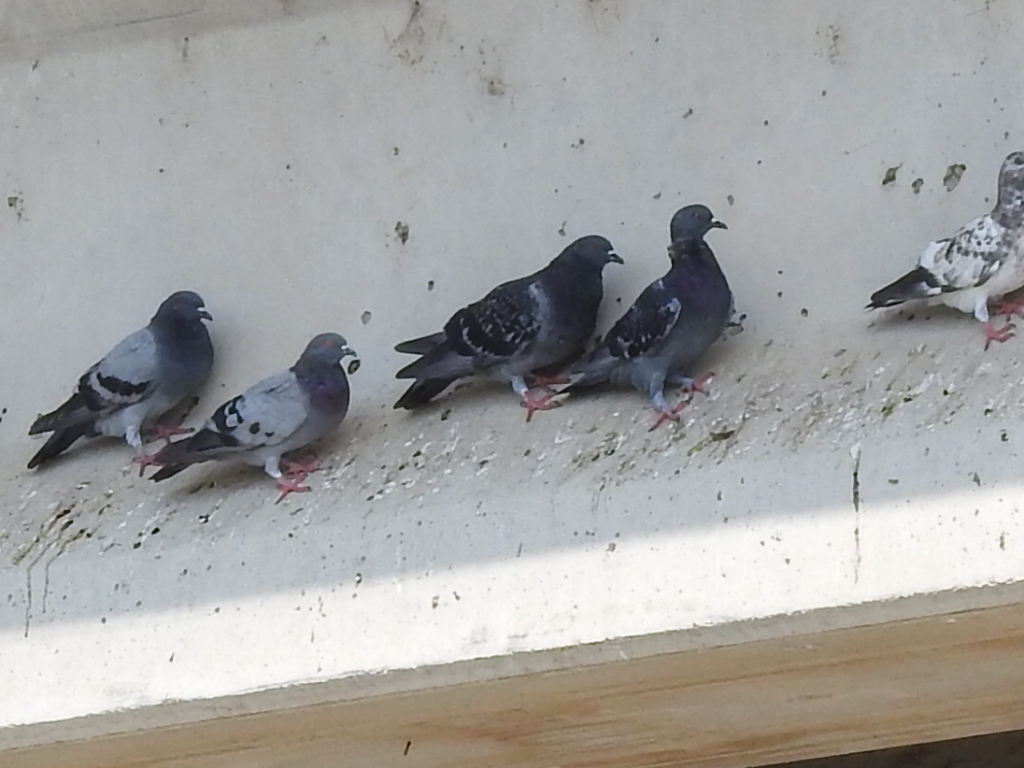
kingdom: Animalia
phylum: Chordata
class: Aves
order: Columbiformes
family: Columbidae
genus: Columba
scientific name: Columba livia
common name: Rock pigeon
